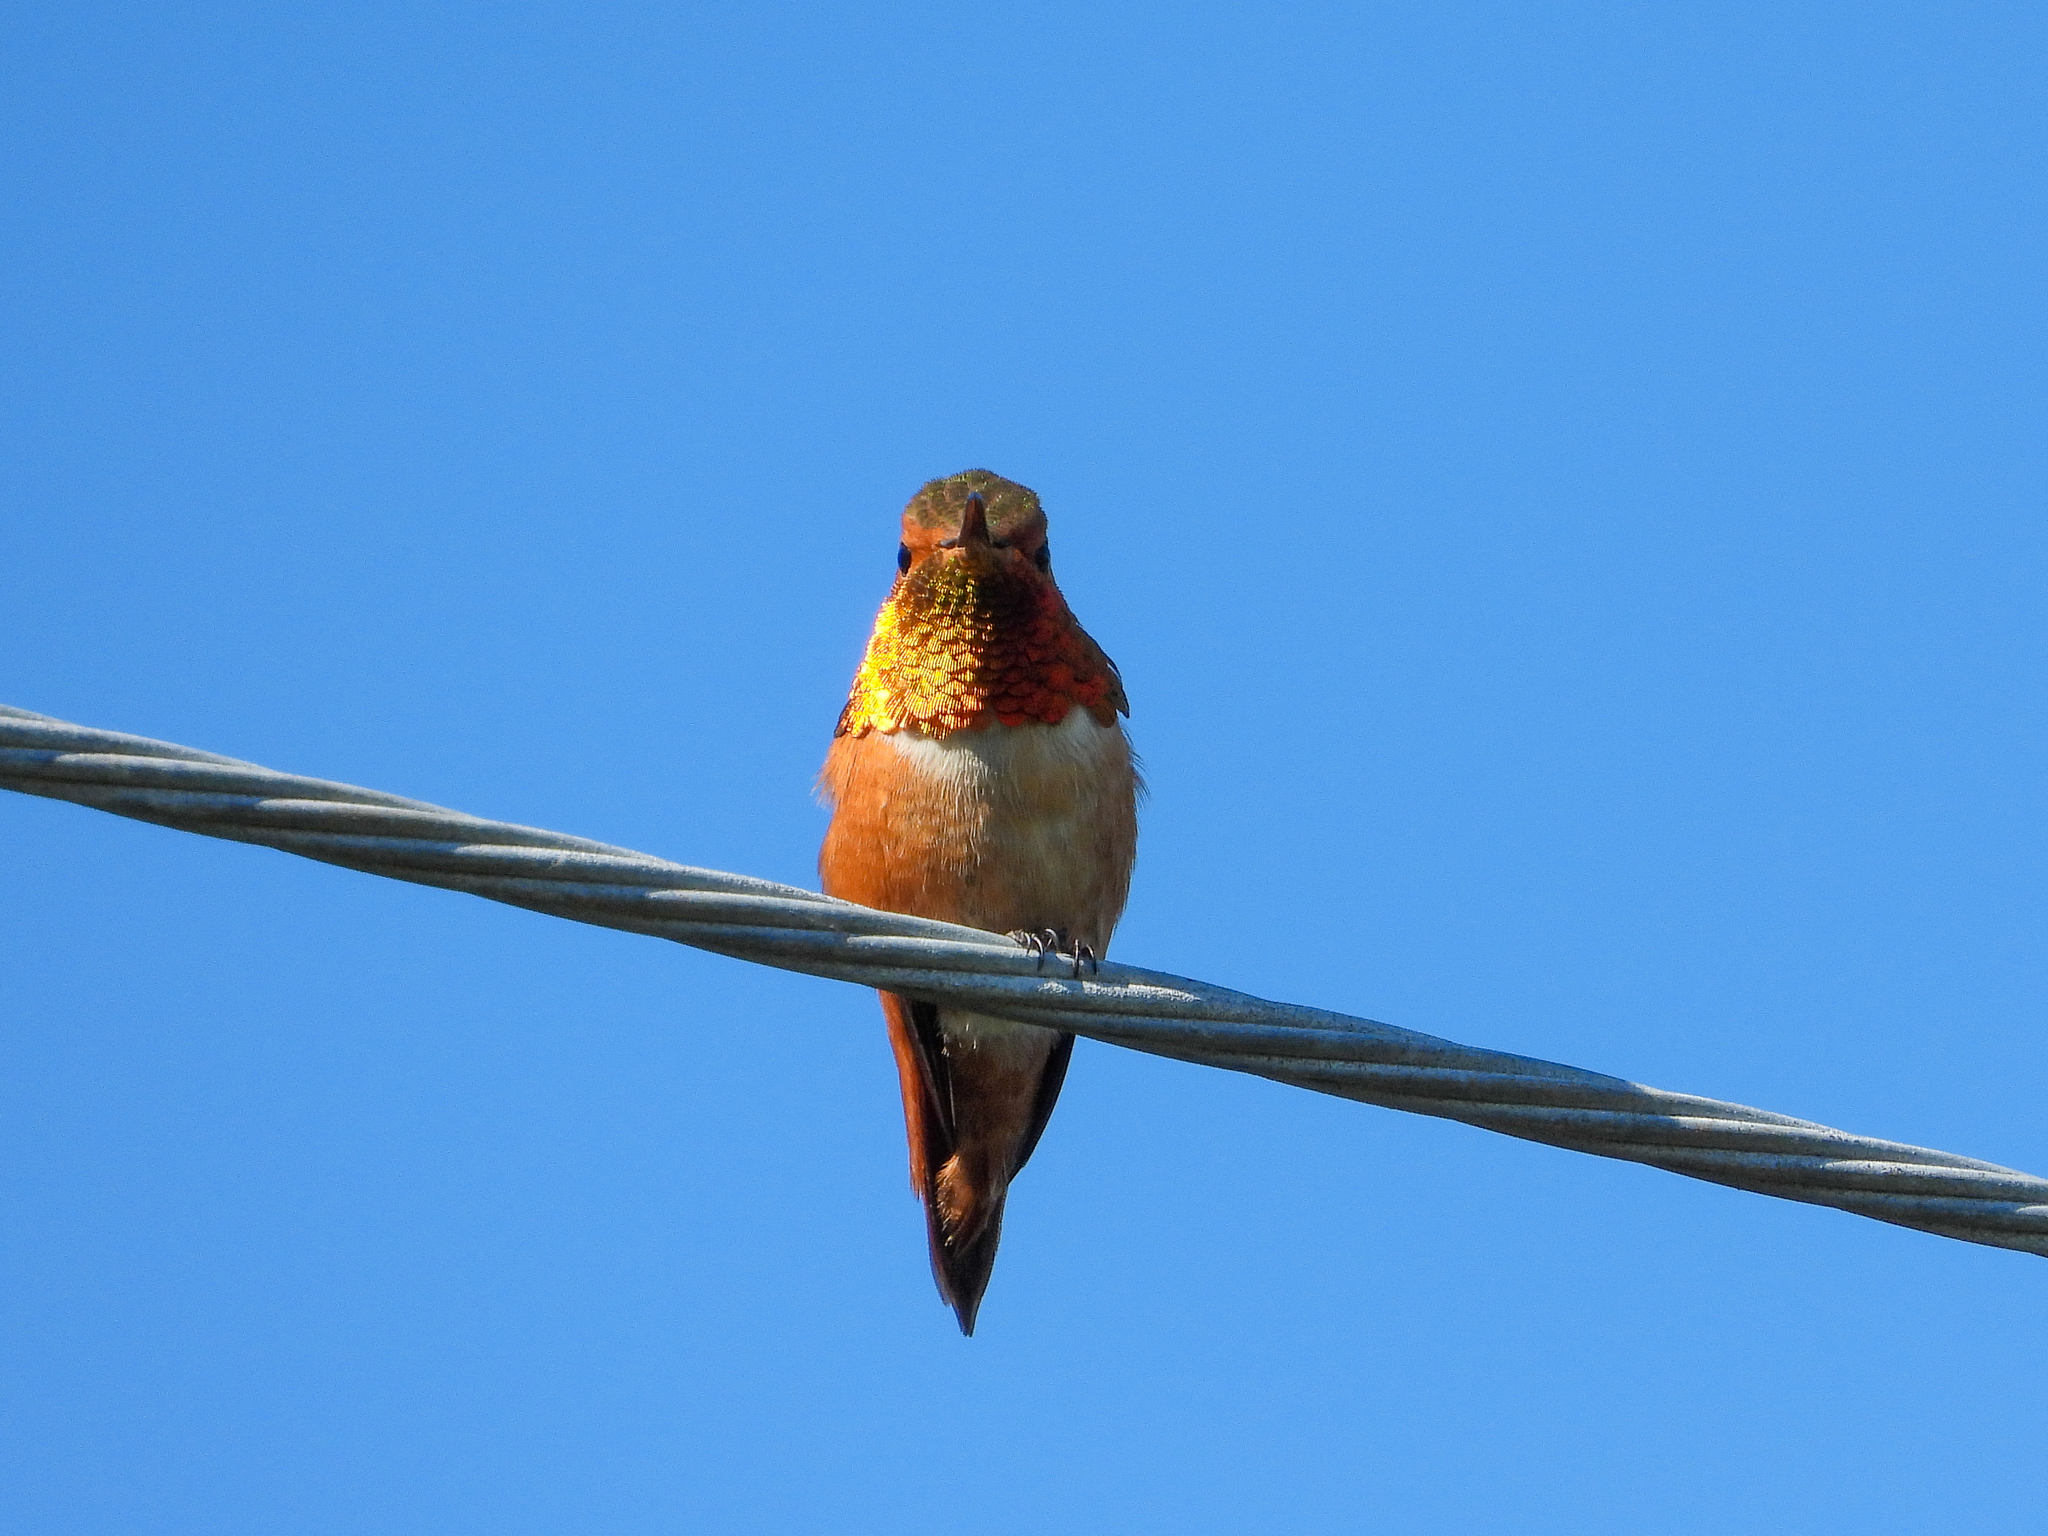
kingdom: Animalia
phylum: Chordata
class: Aves
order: Apodiformes
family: Trochilidae
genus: Selasphorus
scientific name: Selasphorus sasin
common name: Allen's hummingbird
